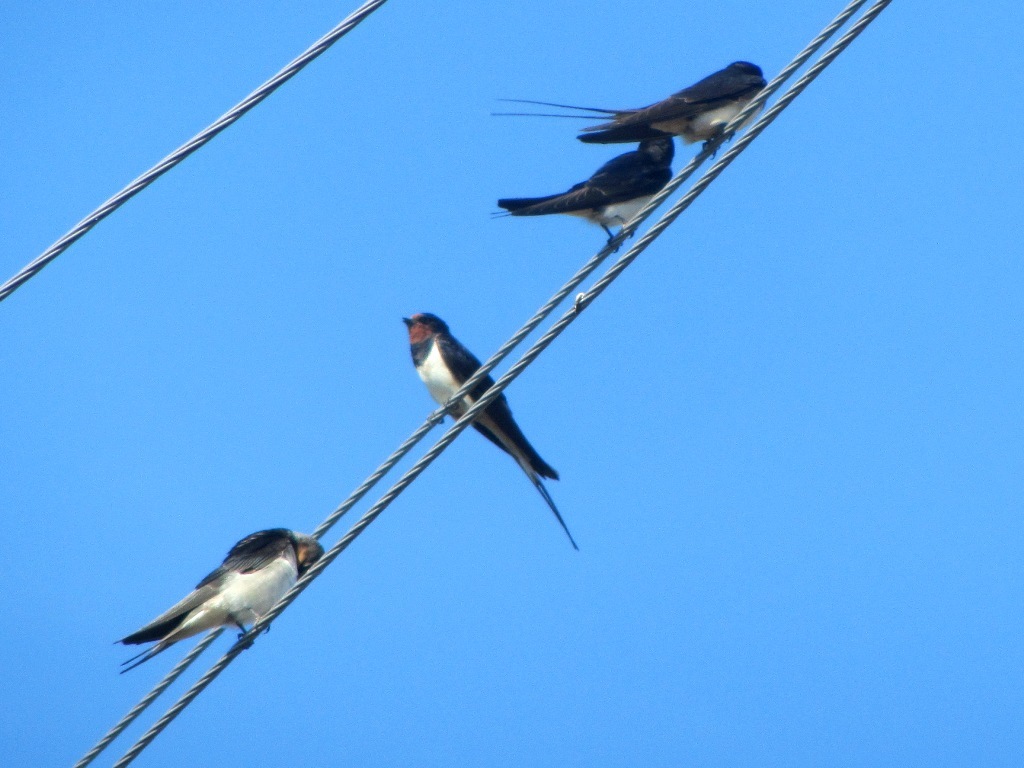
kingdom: Animalia
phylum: Chordata
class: Aves
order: Passeriformes
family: Hirundinidae
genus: Hirundo
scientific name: Hirundo rustica
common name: Barn swallow
